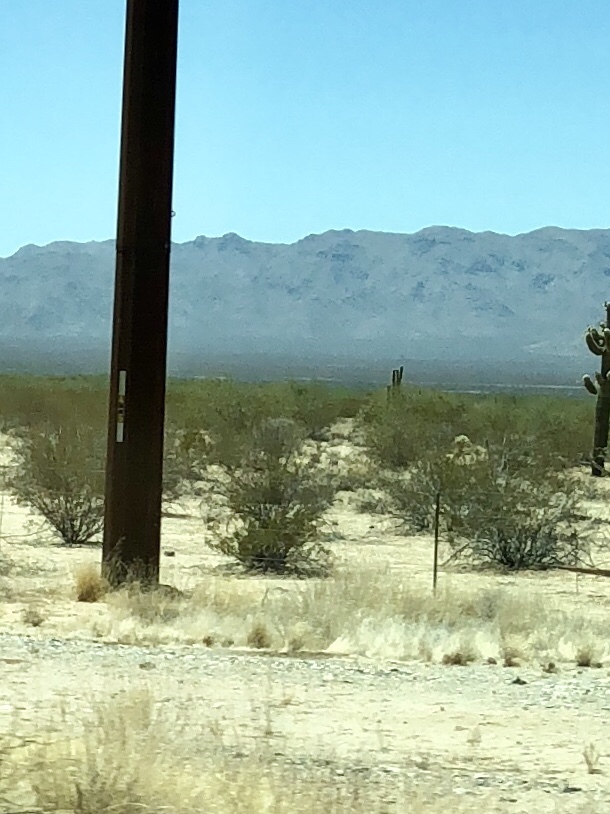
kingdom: Plantae
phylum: Tracheophyta
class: Magnoliopsida
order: Zygophyllales
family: Zygophyllaceae
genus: Larrea
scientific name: Larrea tridentata
